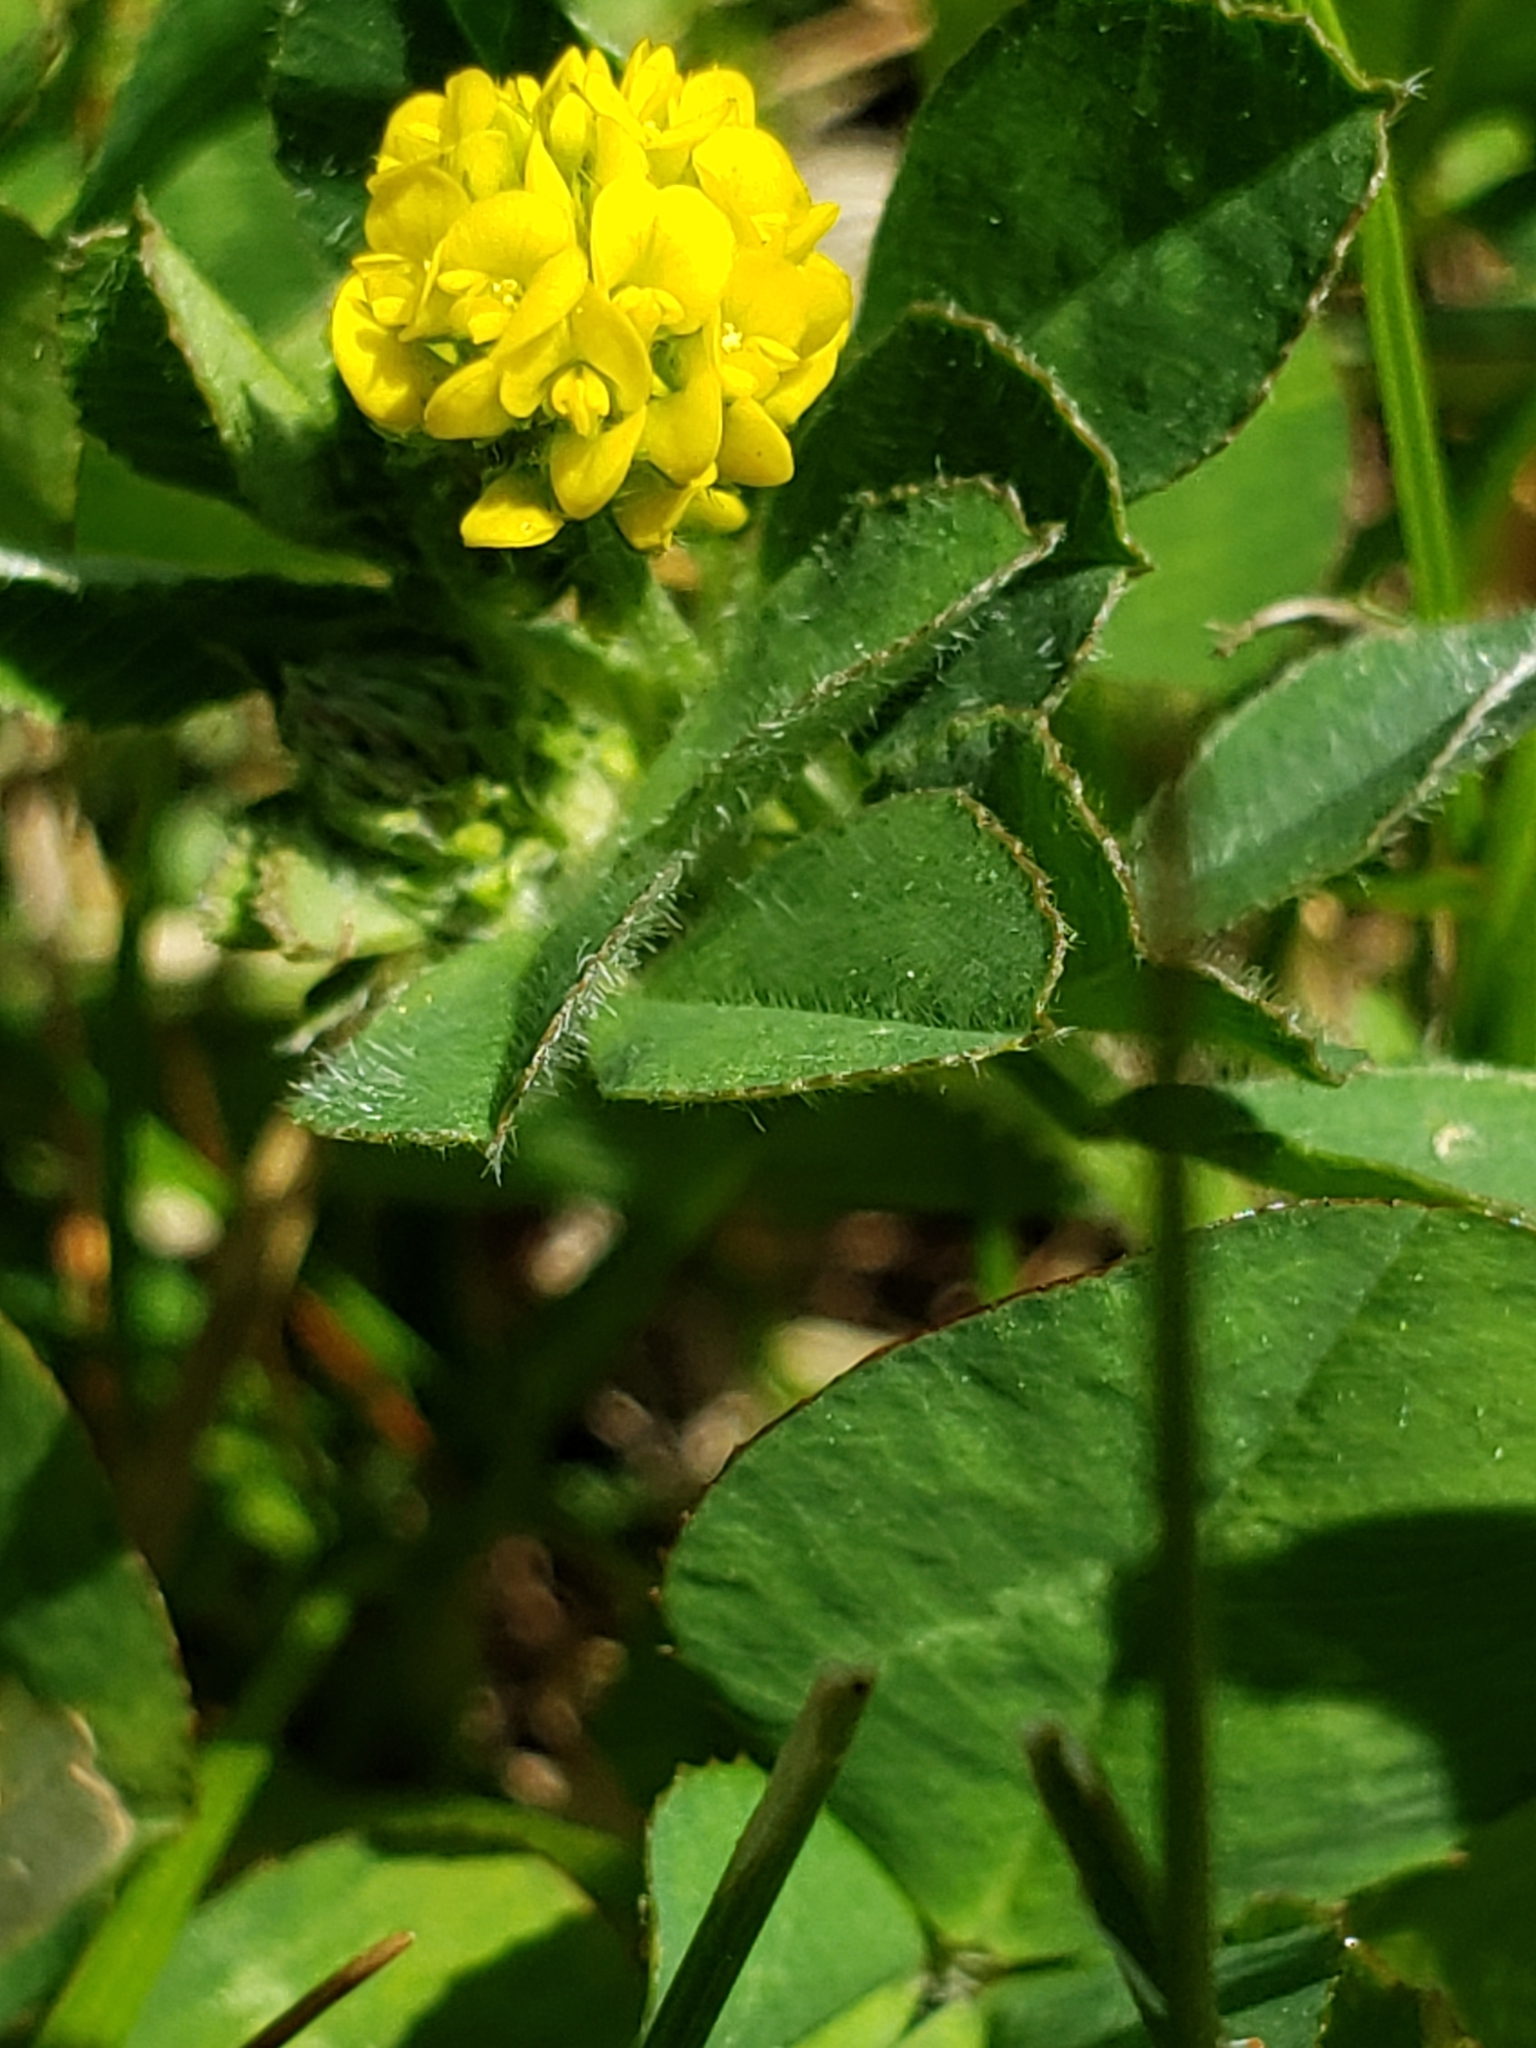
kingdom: Plantae
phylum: Tracheophyta
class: Magnoliopsida
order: Fabales
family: Fabaceae
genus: Medicago
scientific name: Medicago lupulina
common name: Black medick
